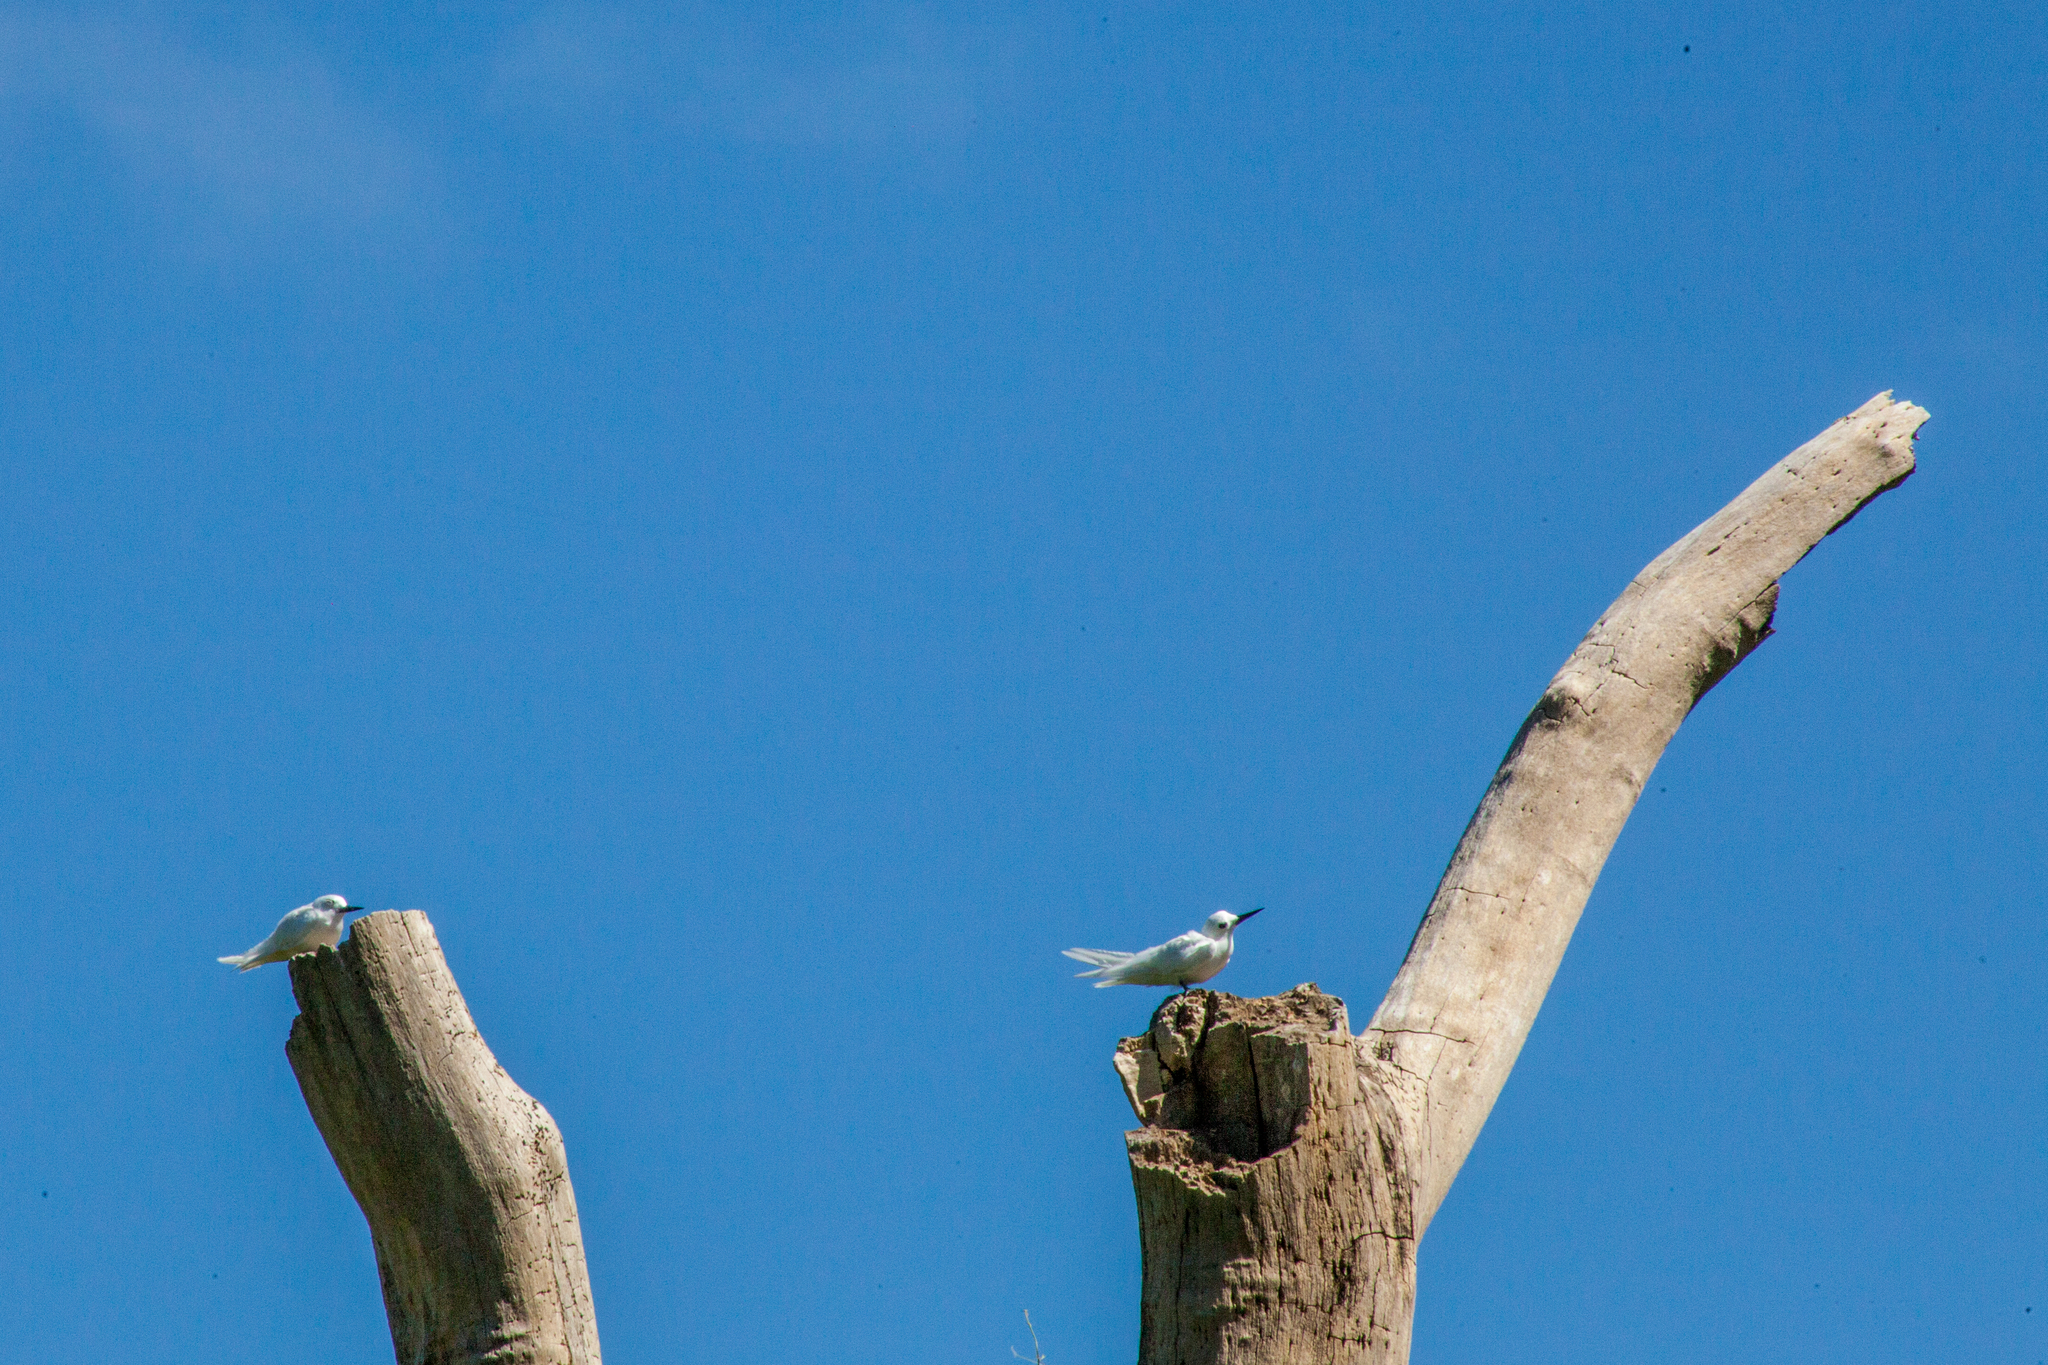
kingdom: Animalia
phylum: Chordata
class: Aves
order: Charadriiformes
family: Laridae
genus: Gygis
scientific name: Gygis alba
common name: White tern
